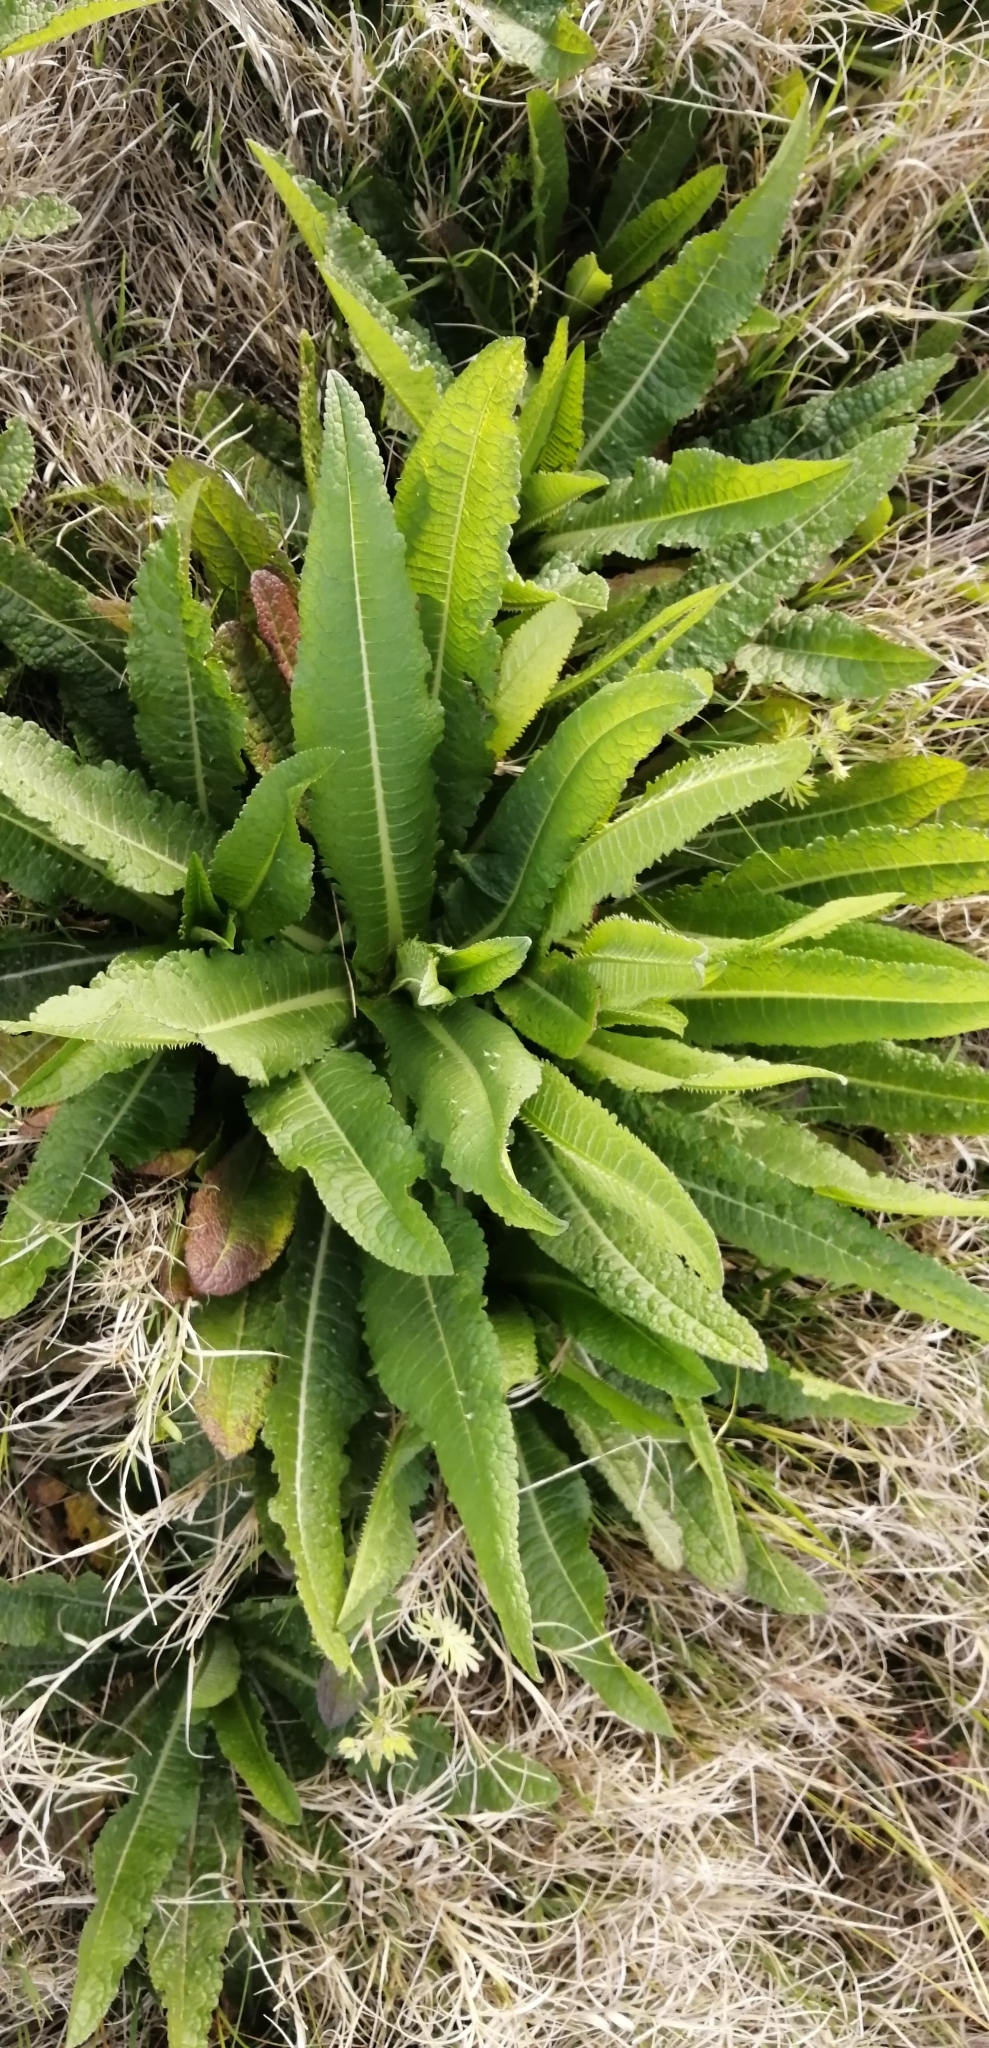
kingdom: Plantae
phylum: Tracheophyta
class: Magnoliopsida
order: Dipsacales
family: Caprifoliaceae
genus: Dipsacus
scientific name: Dipsacus fullonum
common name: Teasel
